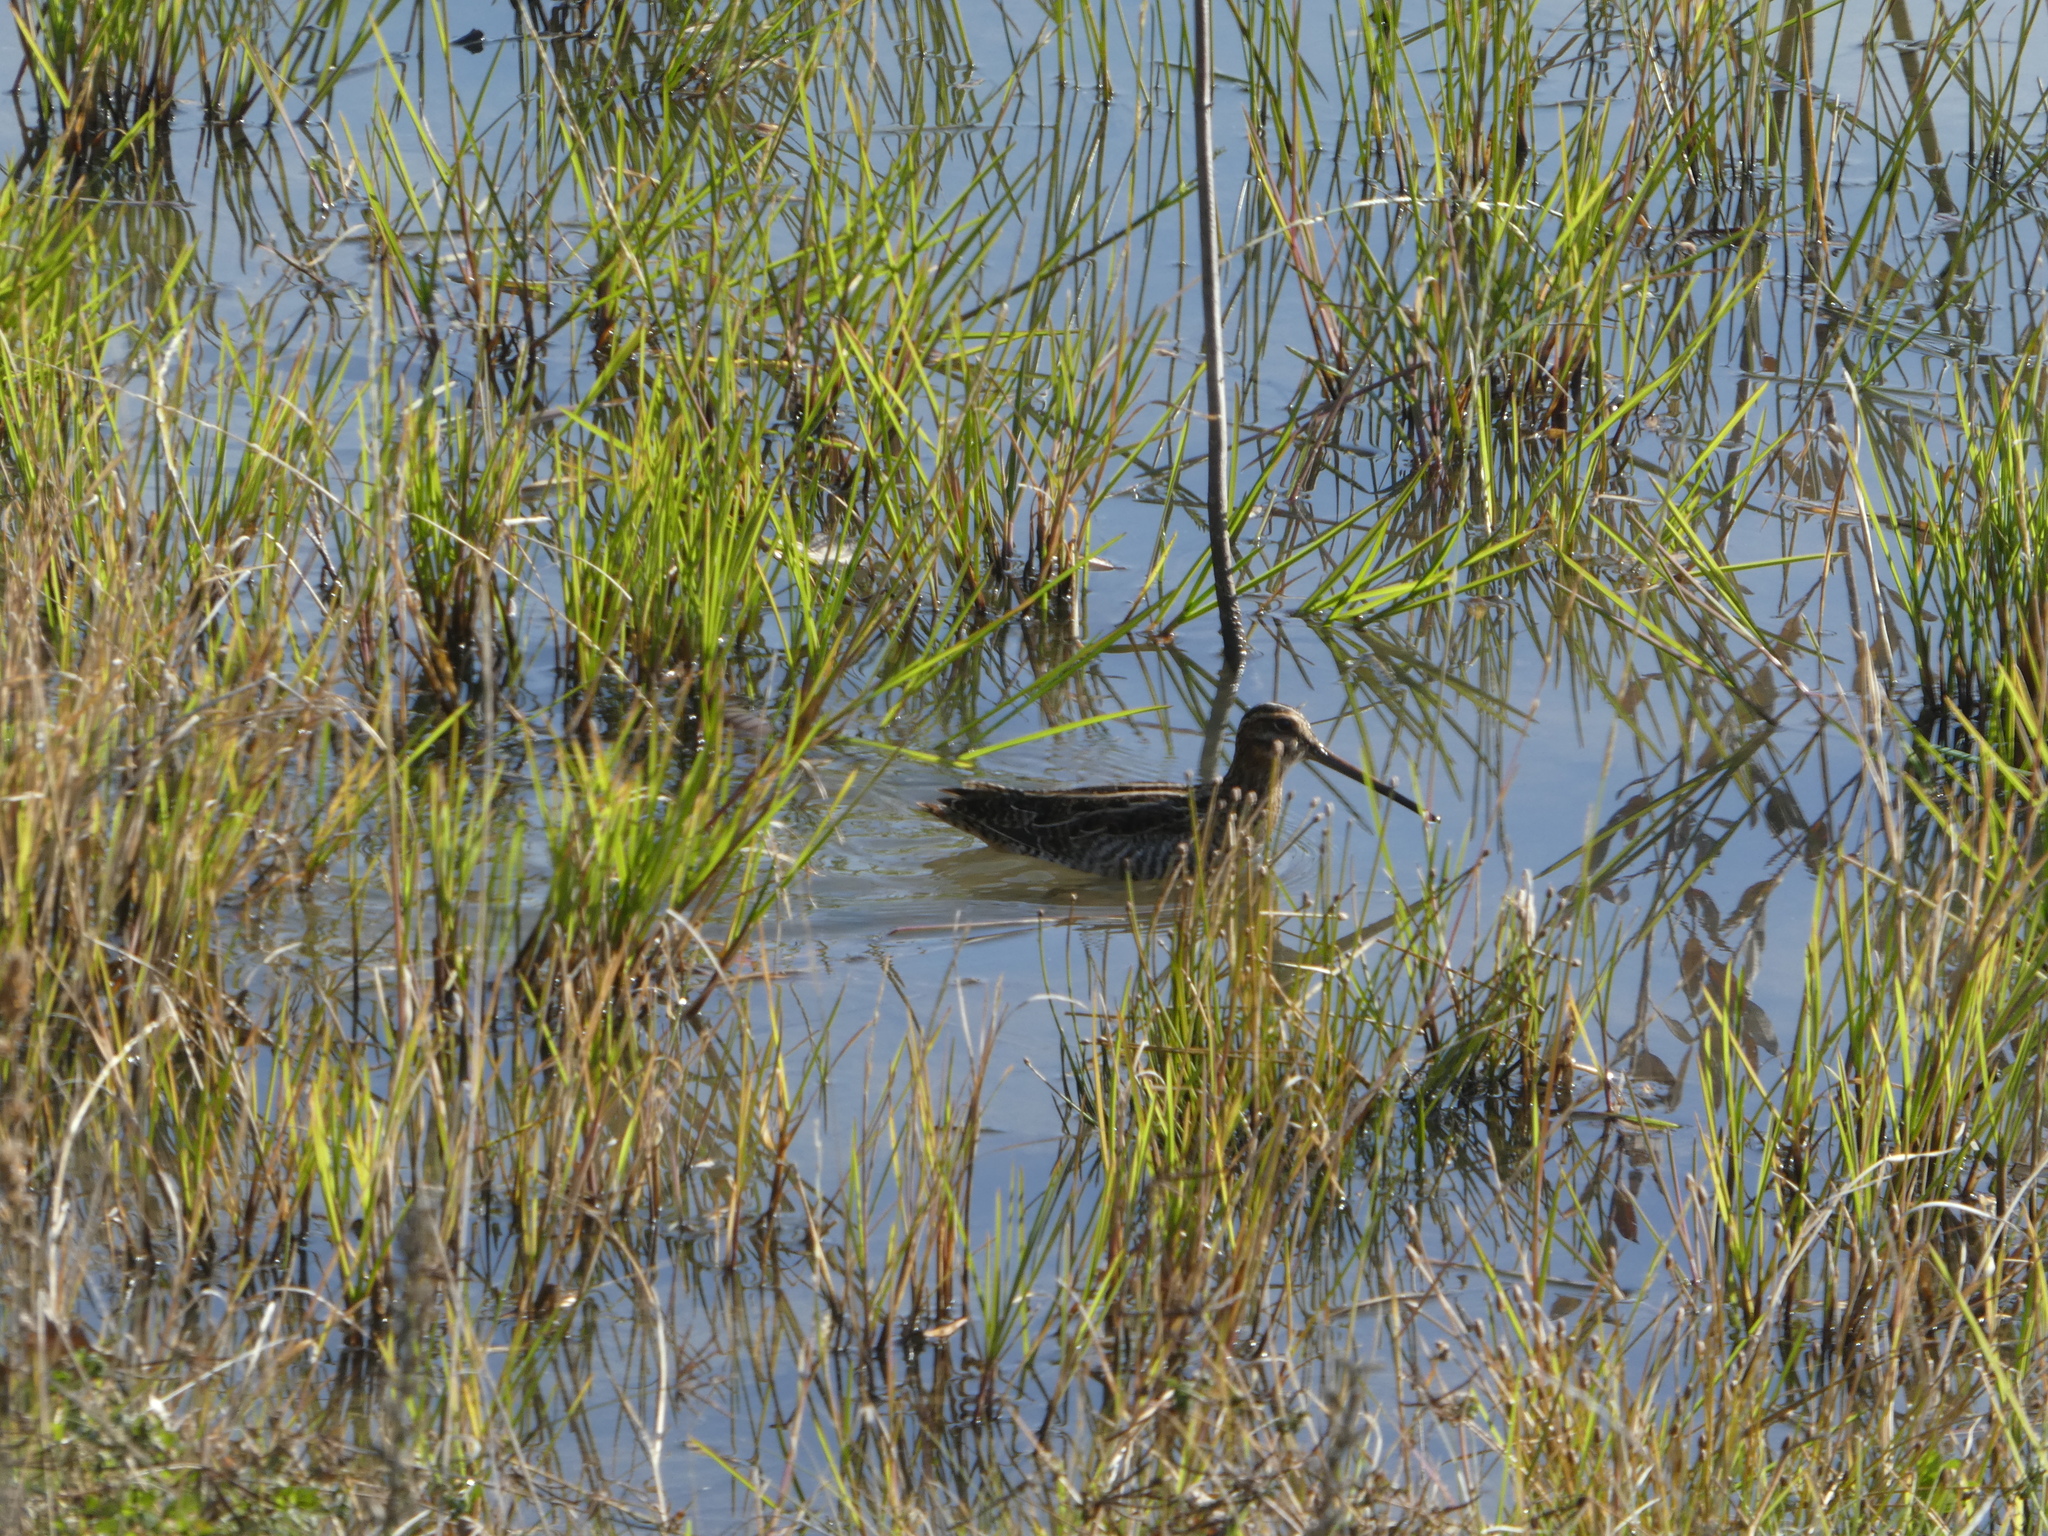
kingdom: Animalia
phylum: Chordata
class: Aves
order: Charadriiformes
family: Scolopacidae
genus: Gallinago
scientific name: Gallinago delicata
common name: Wilson's snipe
